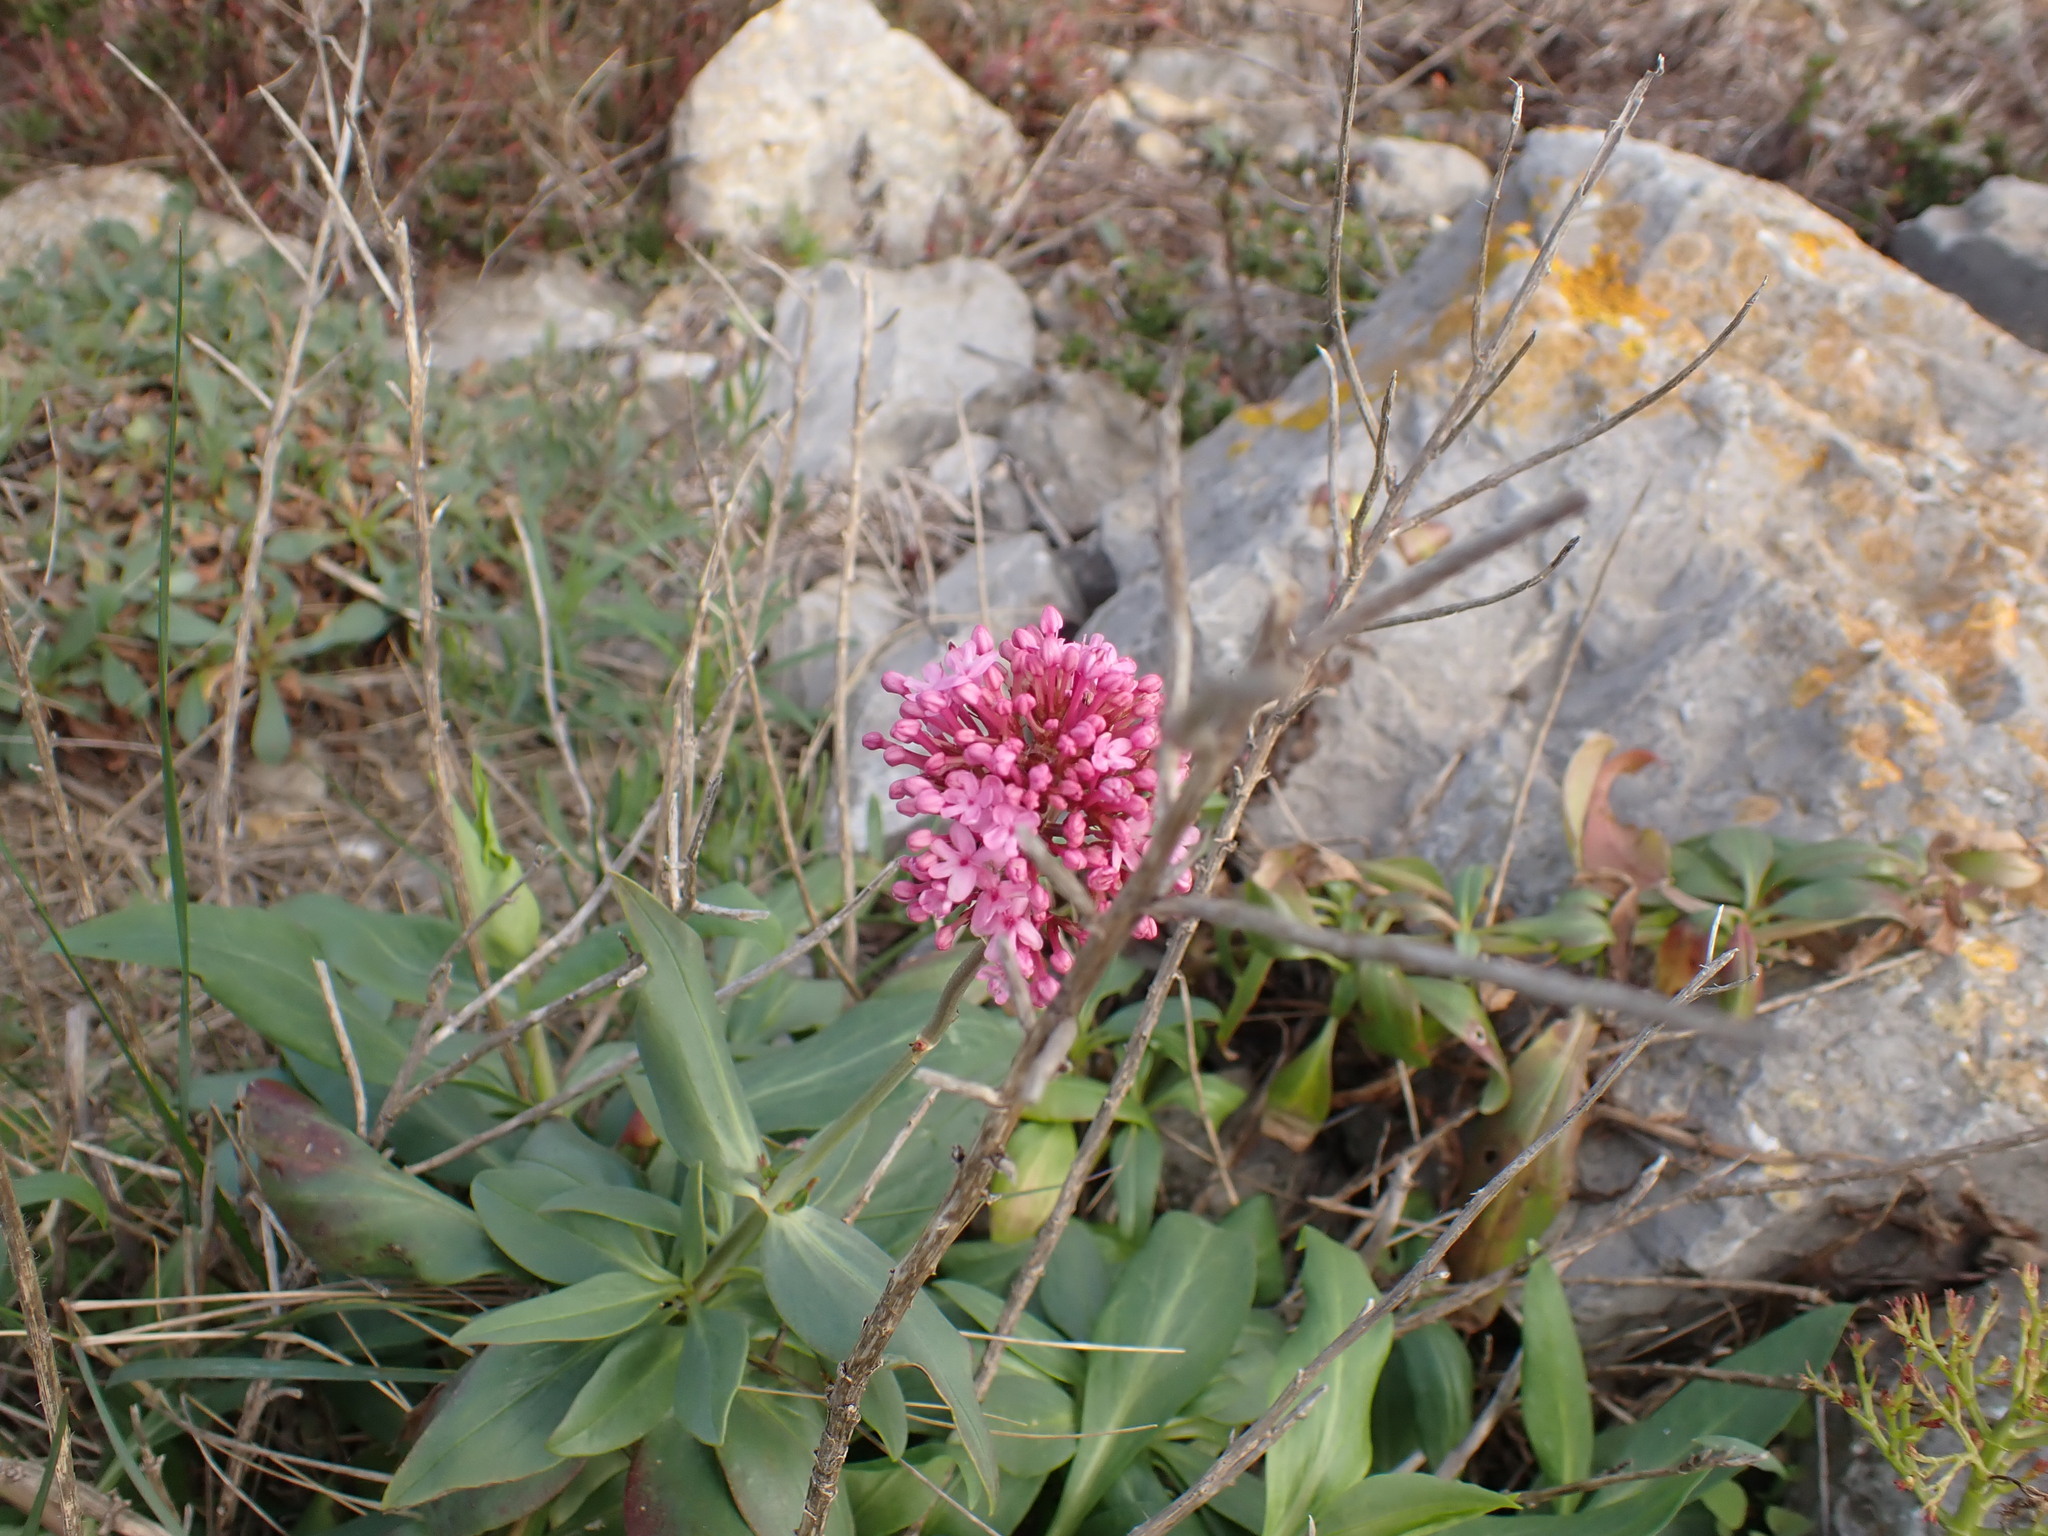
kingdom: Plantae
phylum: Tracheophyta
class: Magnoliopsida
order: Dipsacales
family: Caprifoliaceae
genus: Centranthus
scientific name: Centranthus ruber
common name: Red valerian
